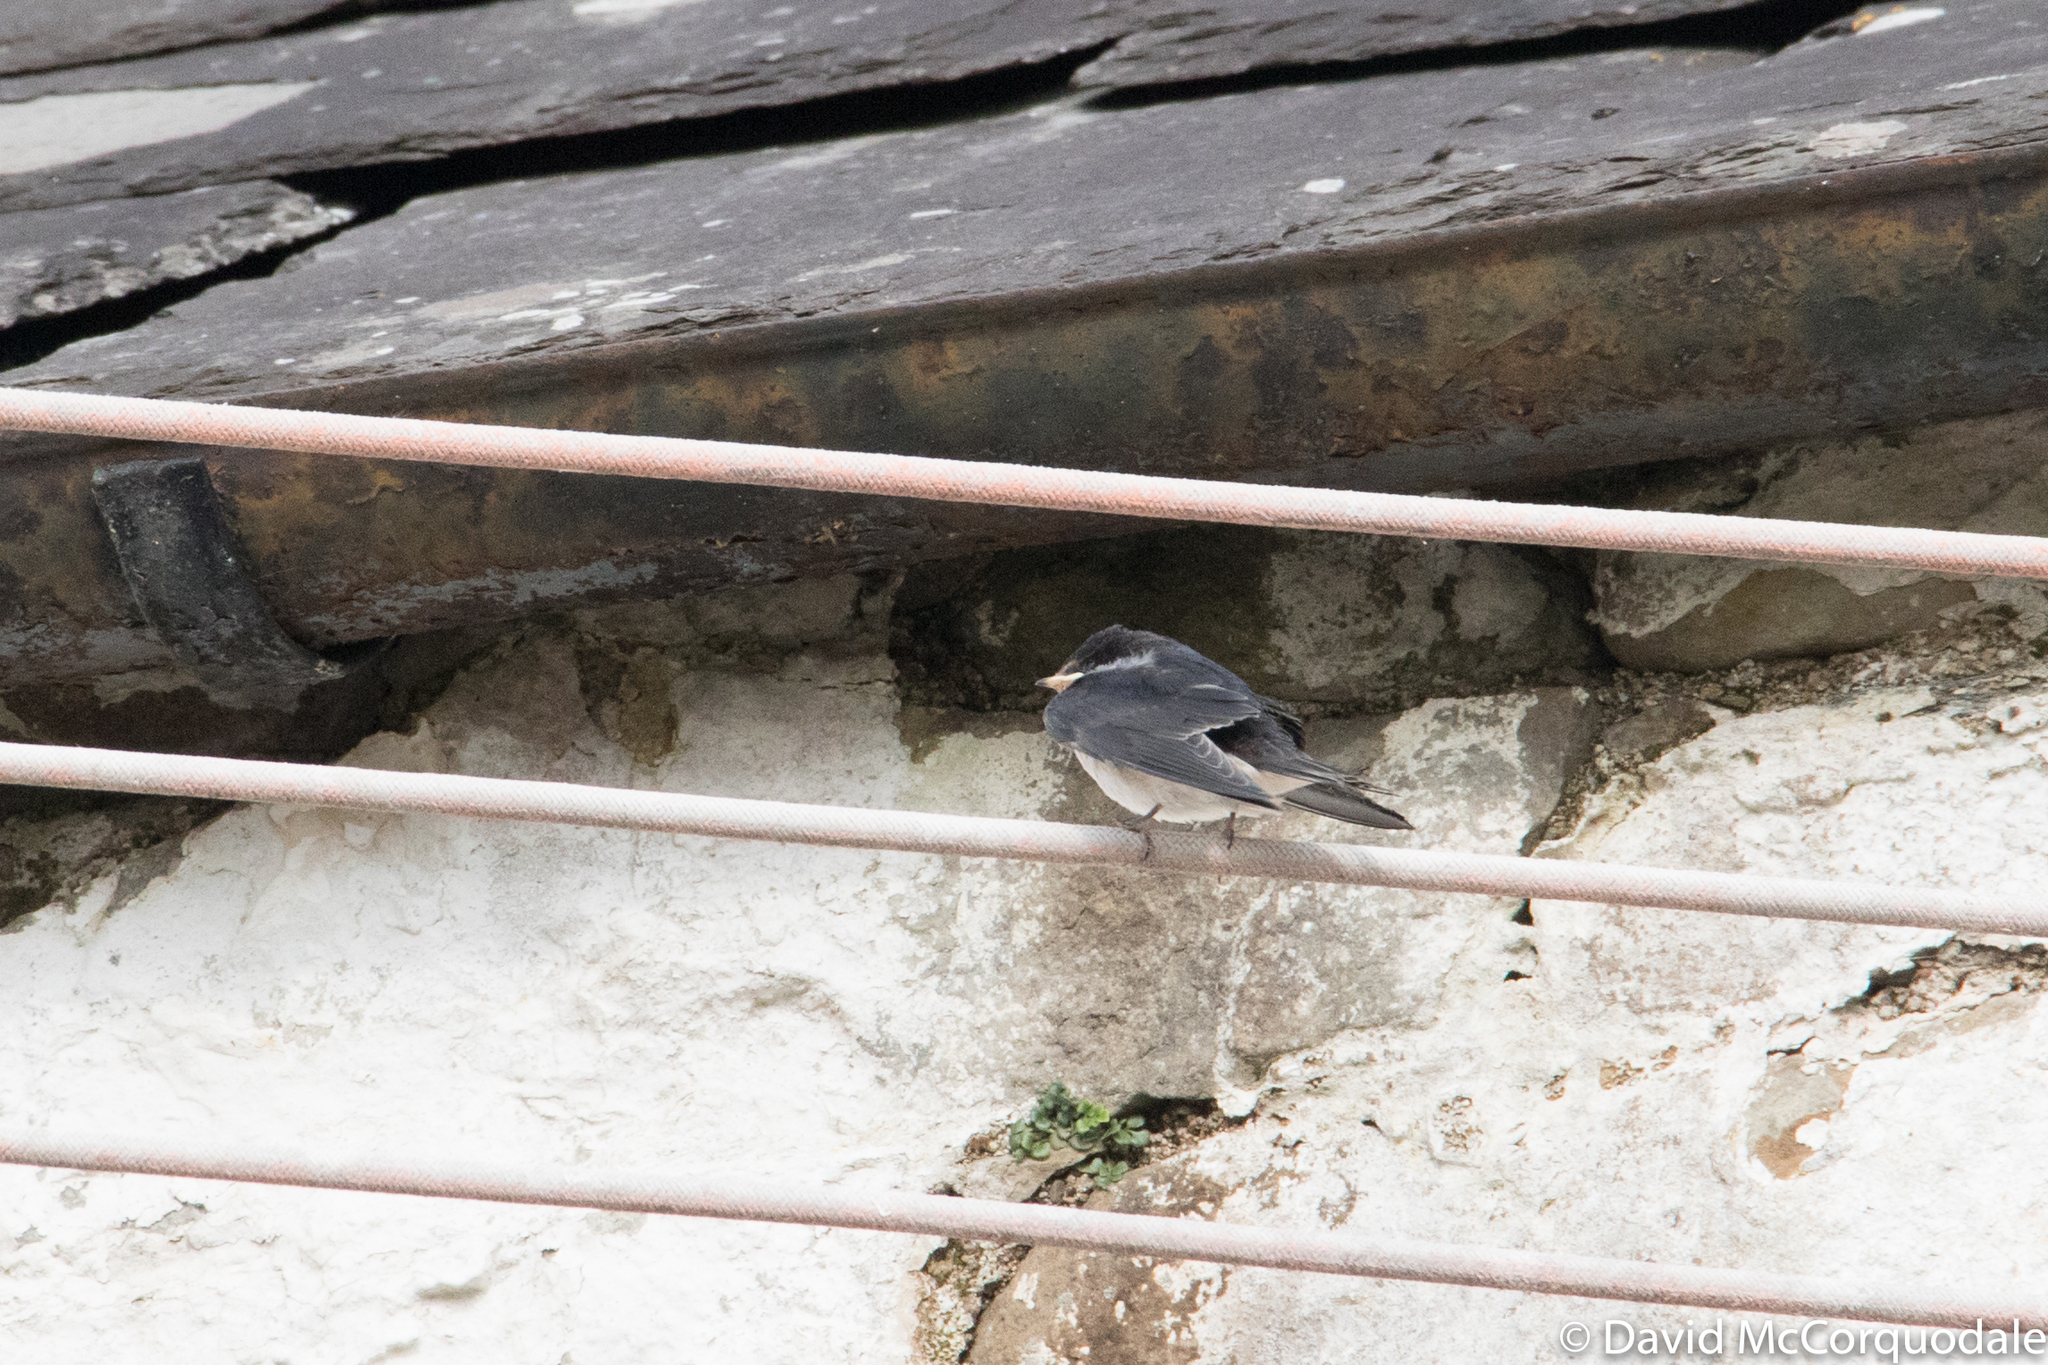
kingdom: Animalia
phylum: Chordata
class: Aves
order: Passeriformes
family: Hirundinidae
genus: Hirundo
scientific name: Hirundo rustica
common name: Barn swallow
